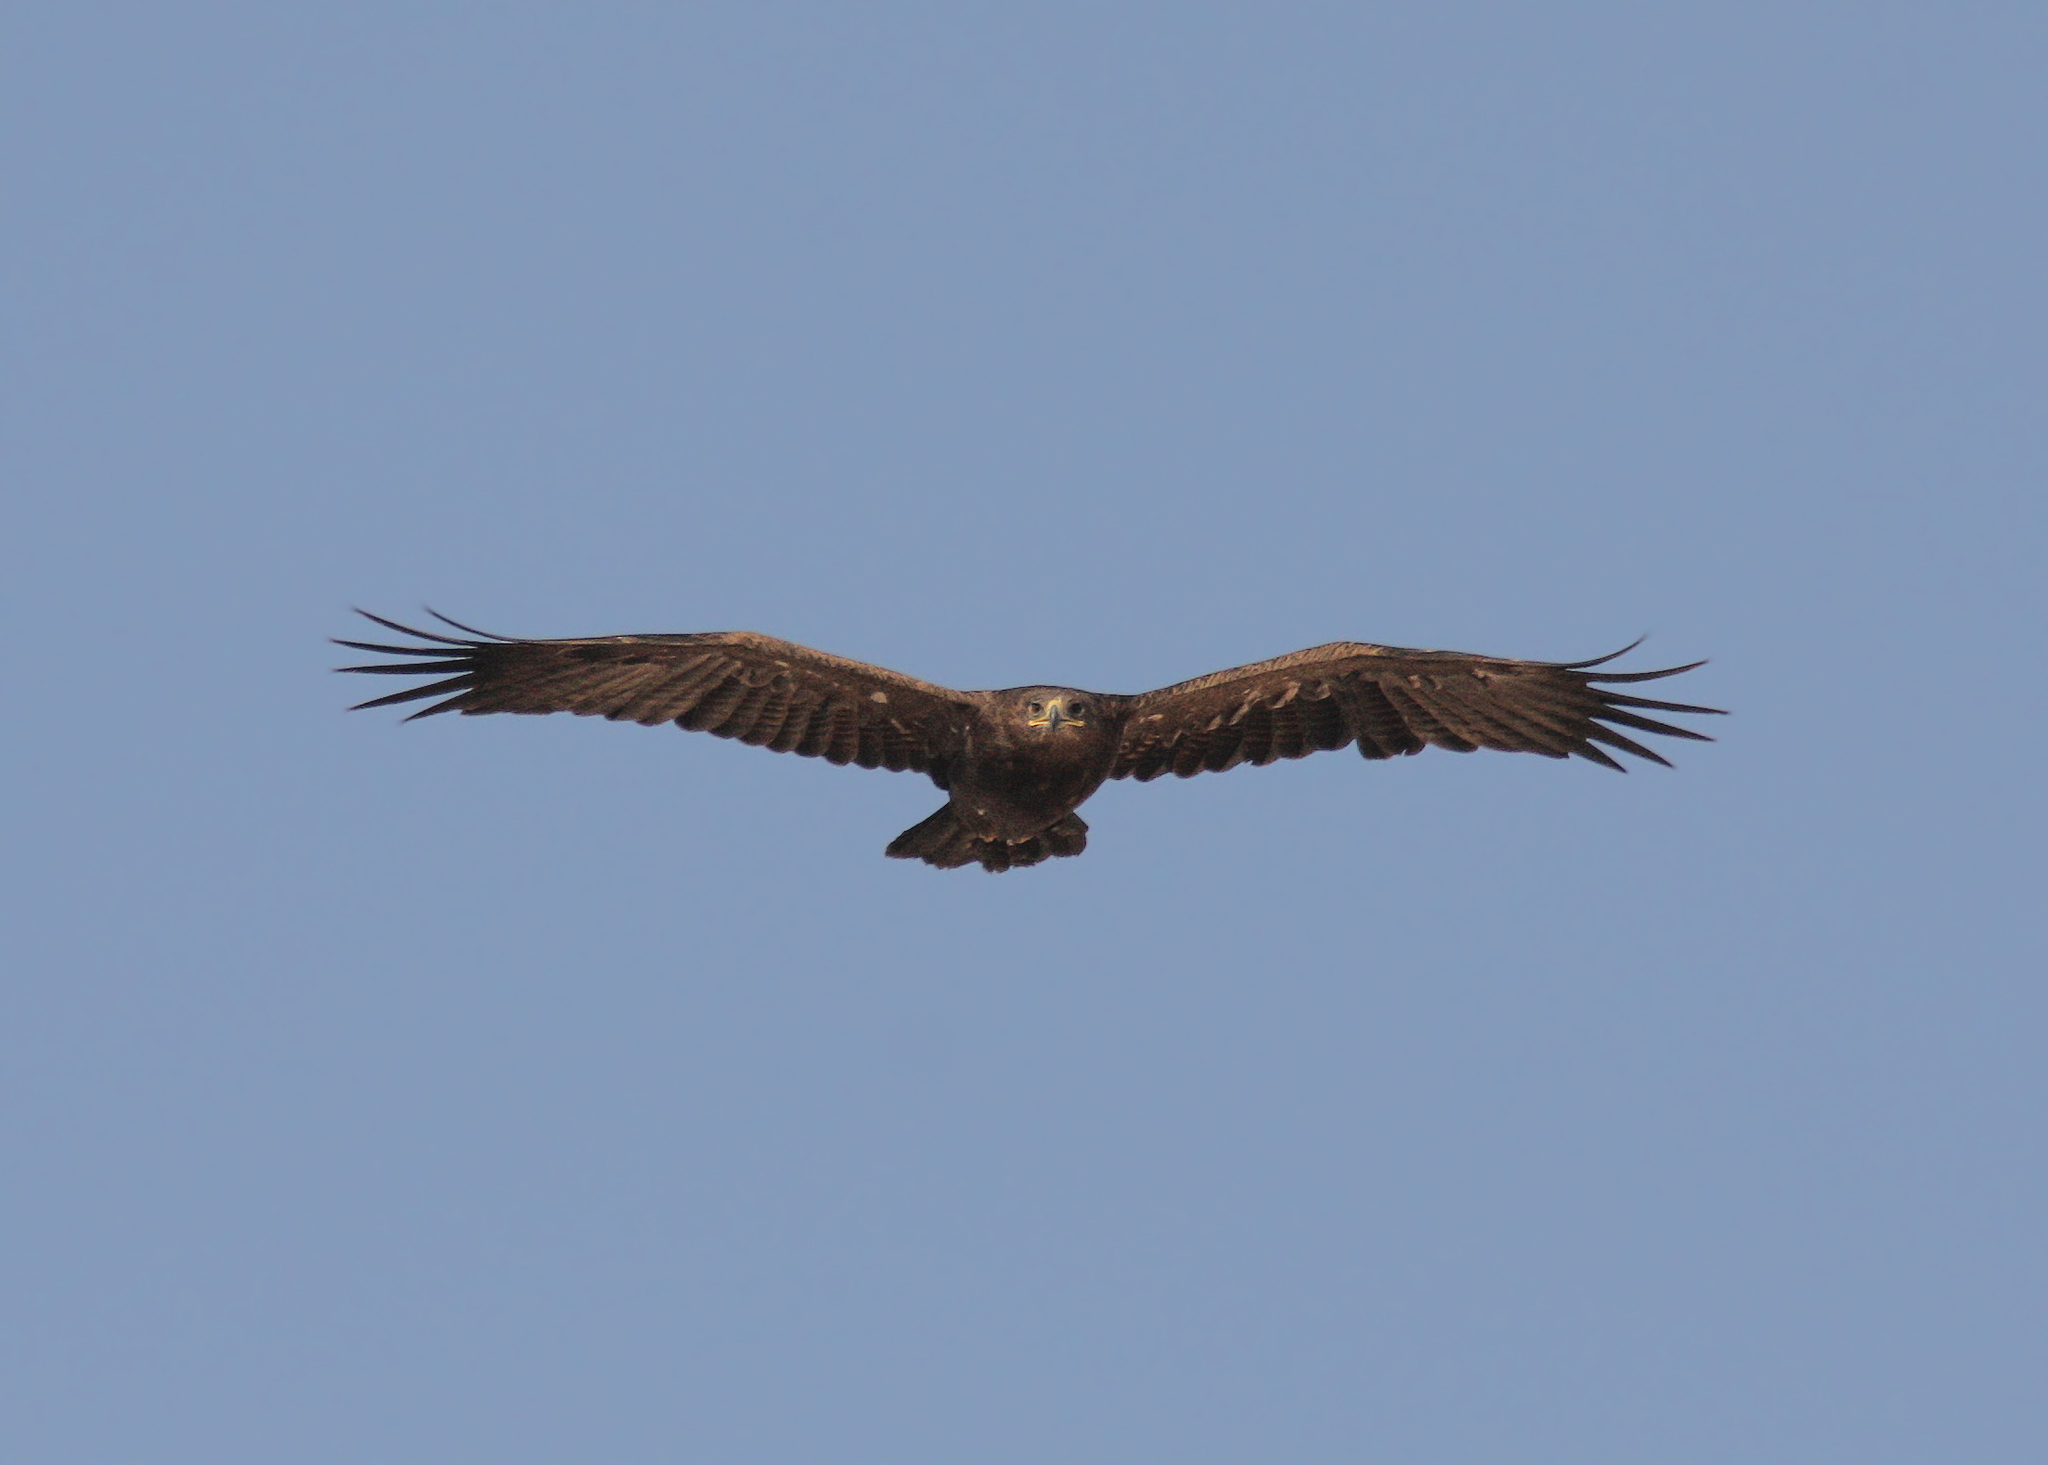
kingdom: Animalia
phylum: Chordata
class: Aves
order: Accipitriformes
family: Accipitridae
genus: Aquila
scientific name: Aquila nipalensis
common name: Steppe eagle
